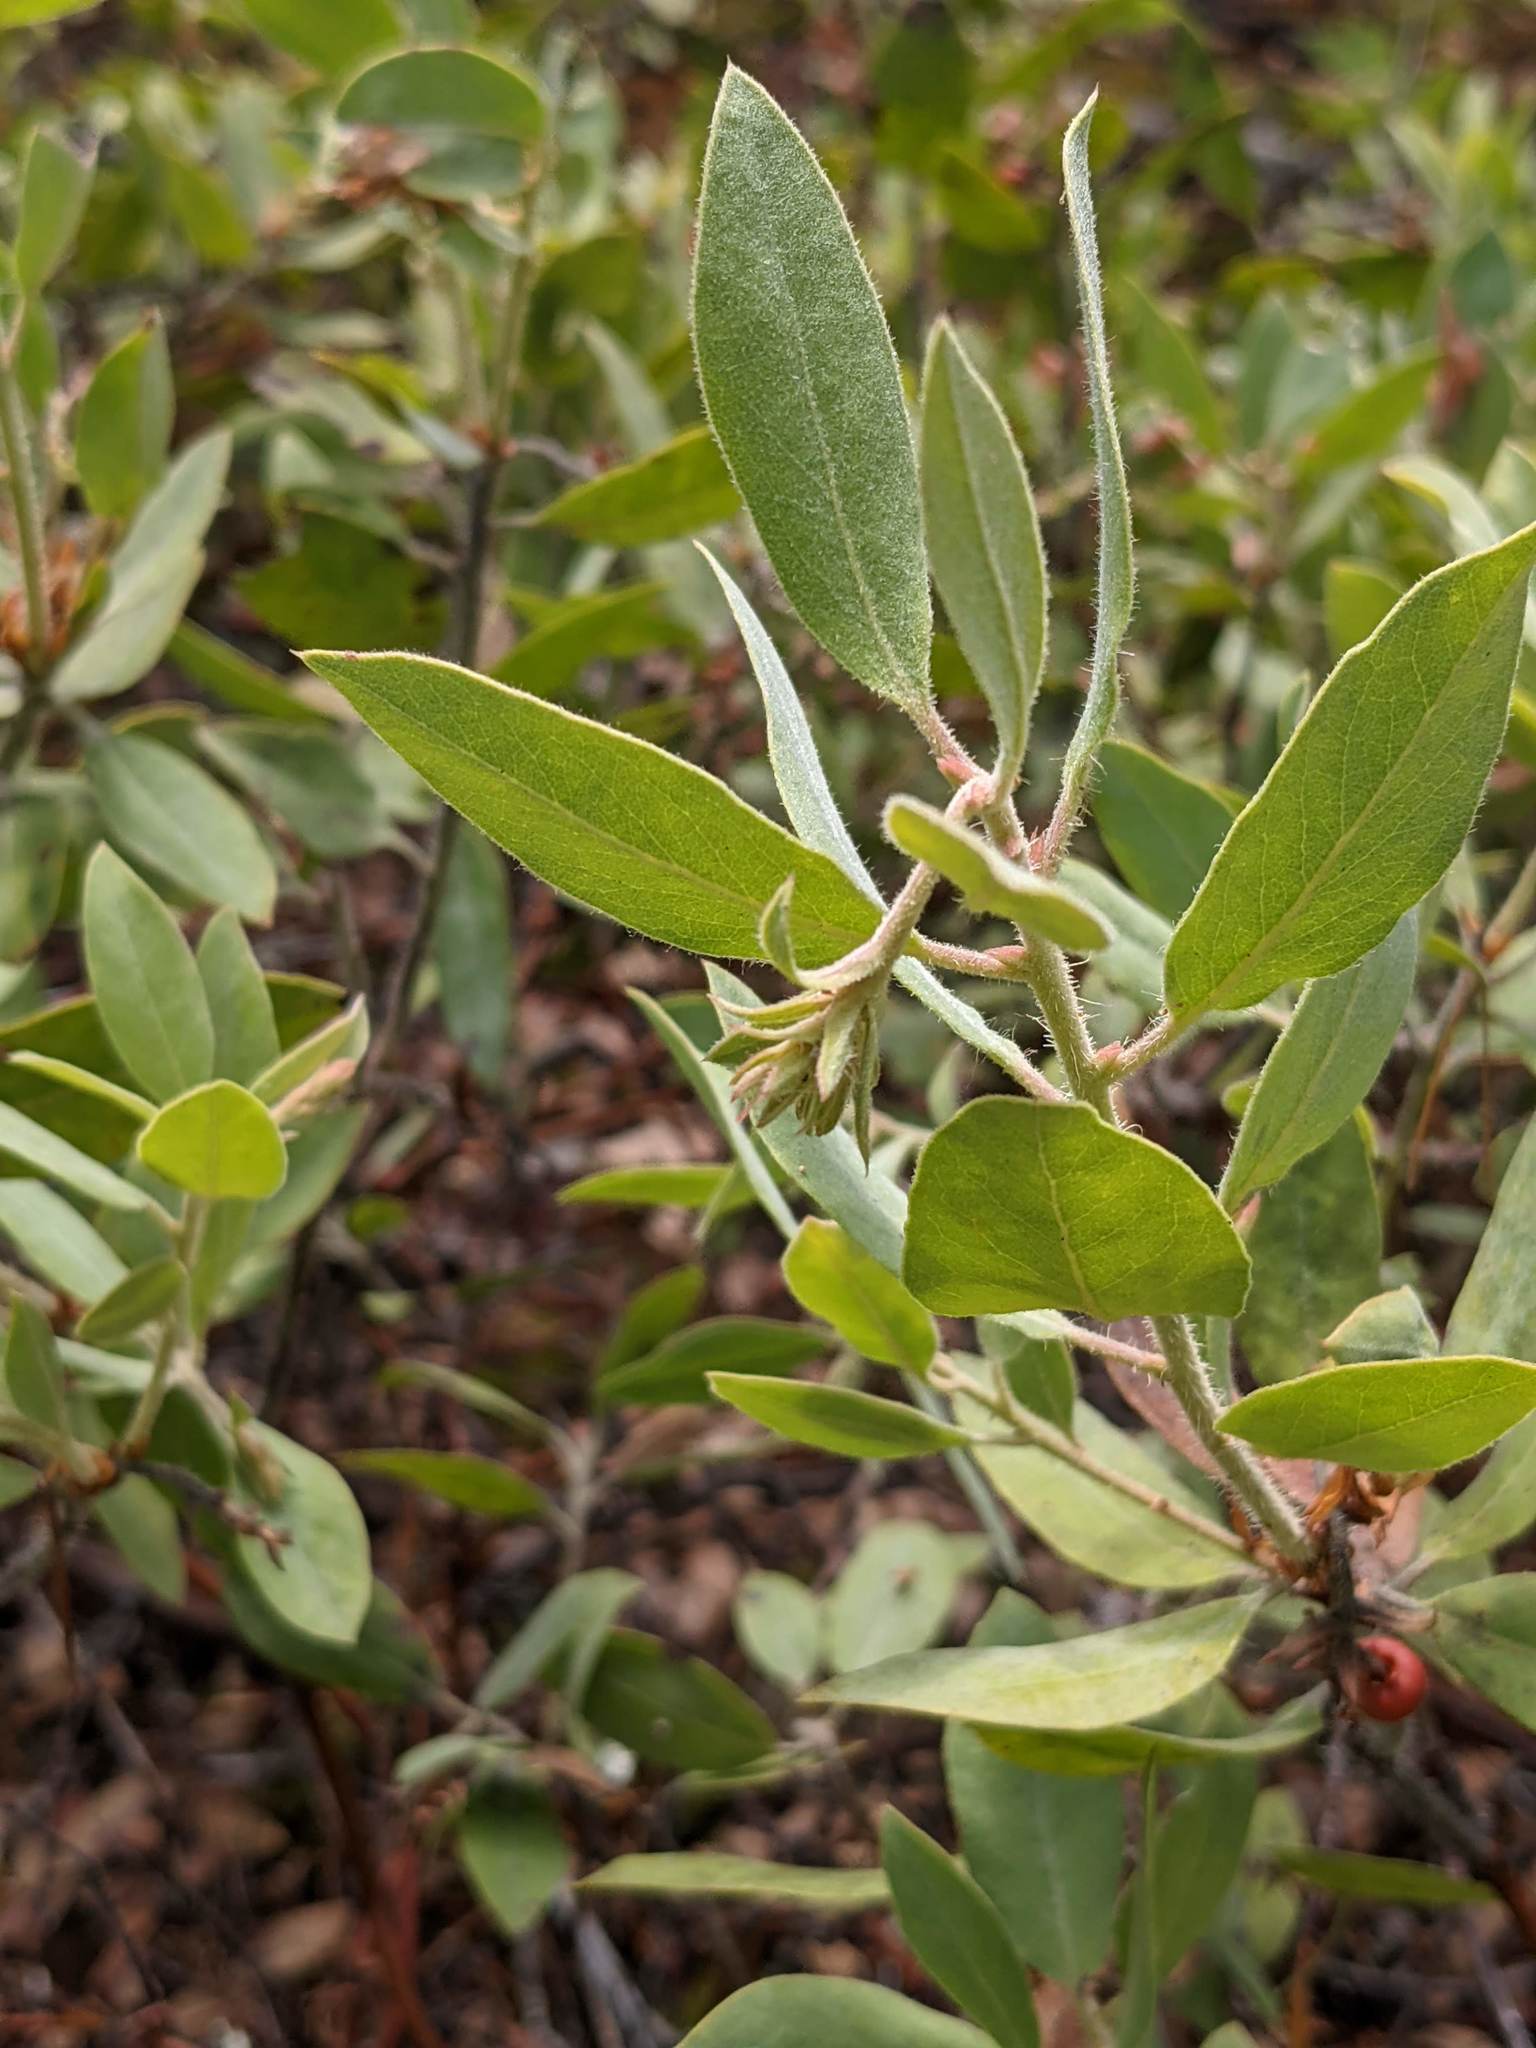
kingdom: Plantae
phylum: Tracheophyta
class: Magnoliopsida
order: Ericales
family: Ericaceae
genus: Arctostaphylos
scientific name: Arctostaphylos columbiana
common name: Bristly bearberry
